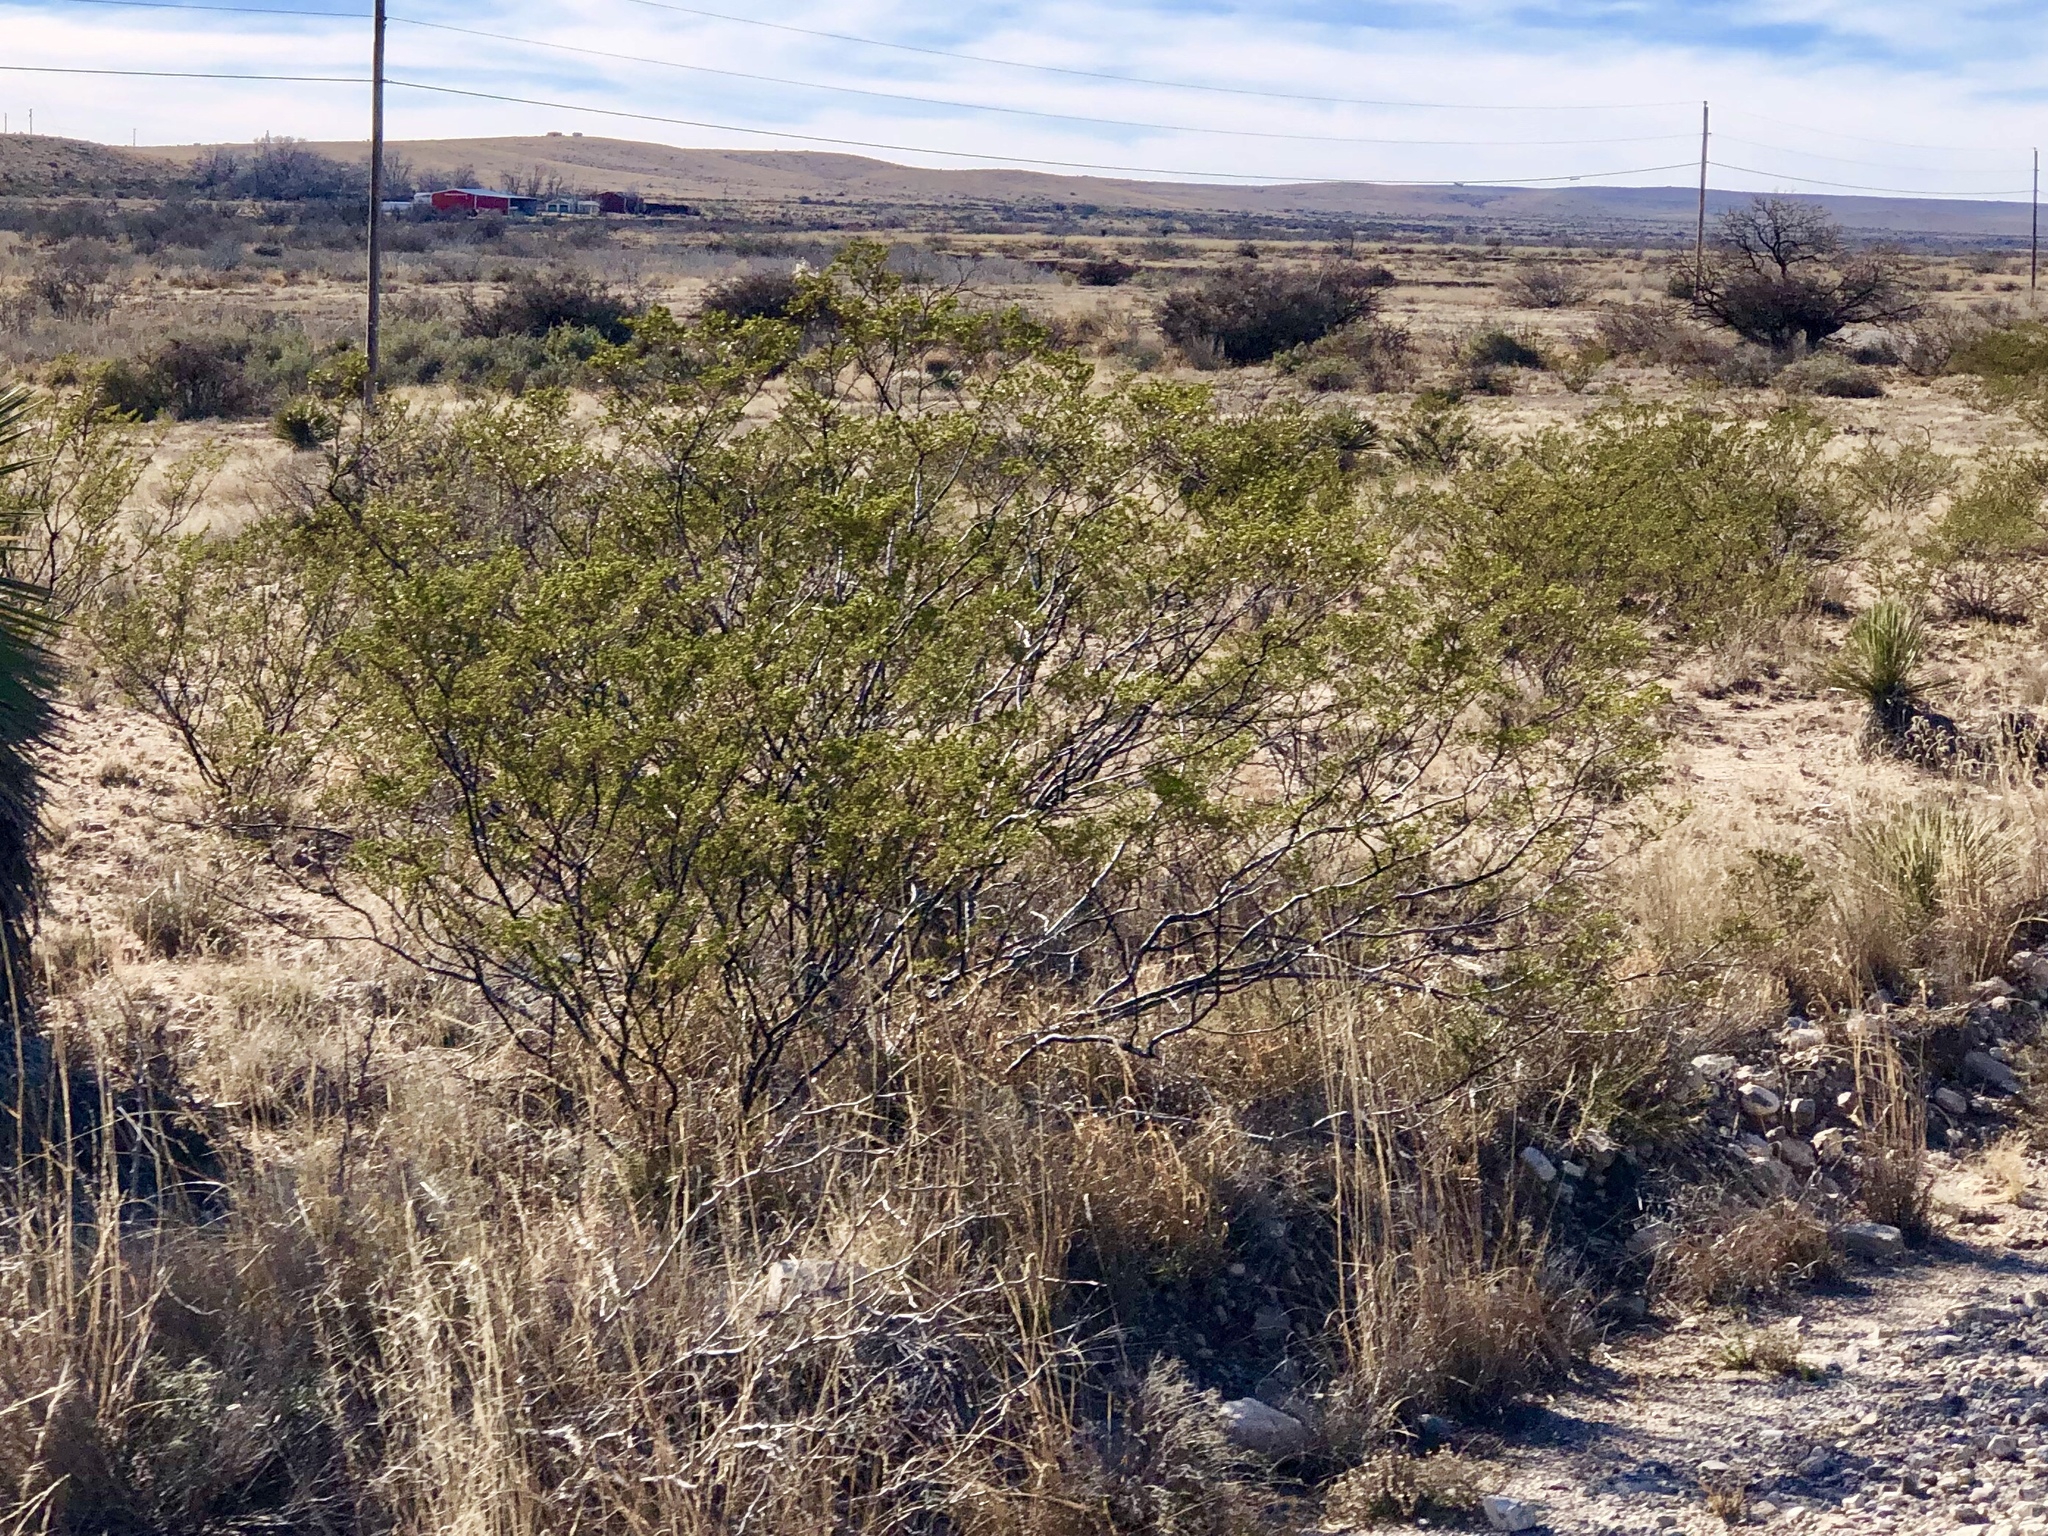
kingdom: Plantae
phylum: Tracheophyta
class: Magnoliopsida
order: Zygophyllales
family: Zygophyllaceae
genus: Larrea
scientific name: Larrea tridentata
